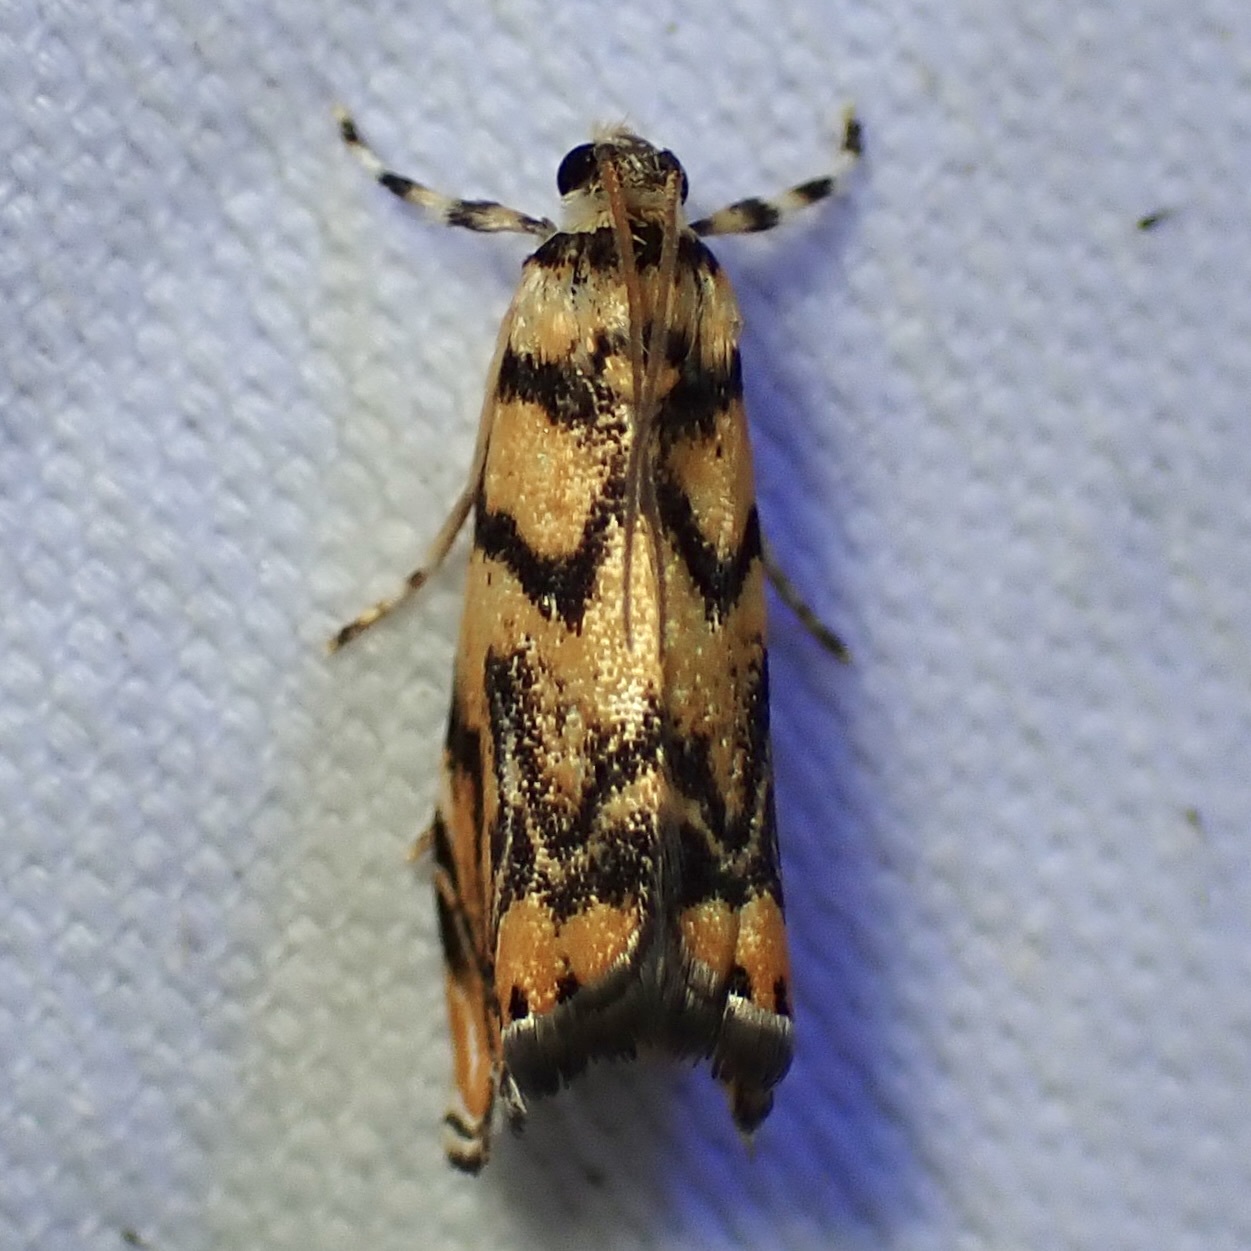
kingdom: Animalia
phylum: Arthropoda
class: Insecta
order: Lepidoptera
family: Crambidae
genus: Diptychophora
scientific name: Diptychophora harlequinalis
